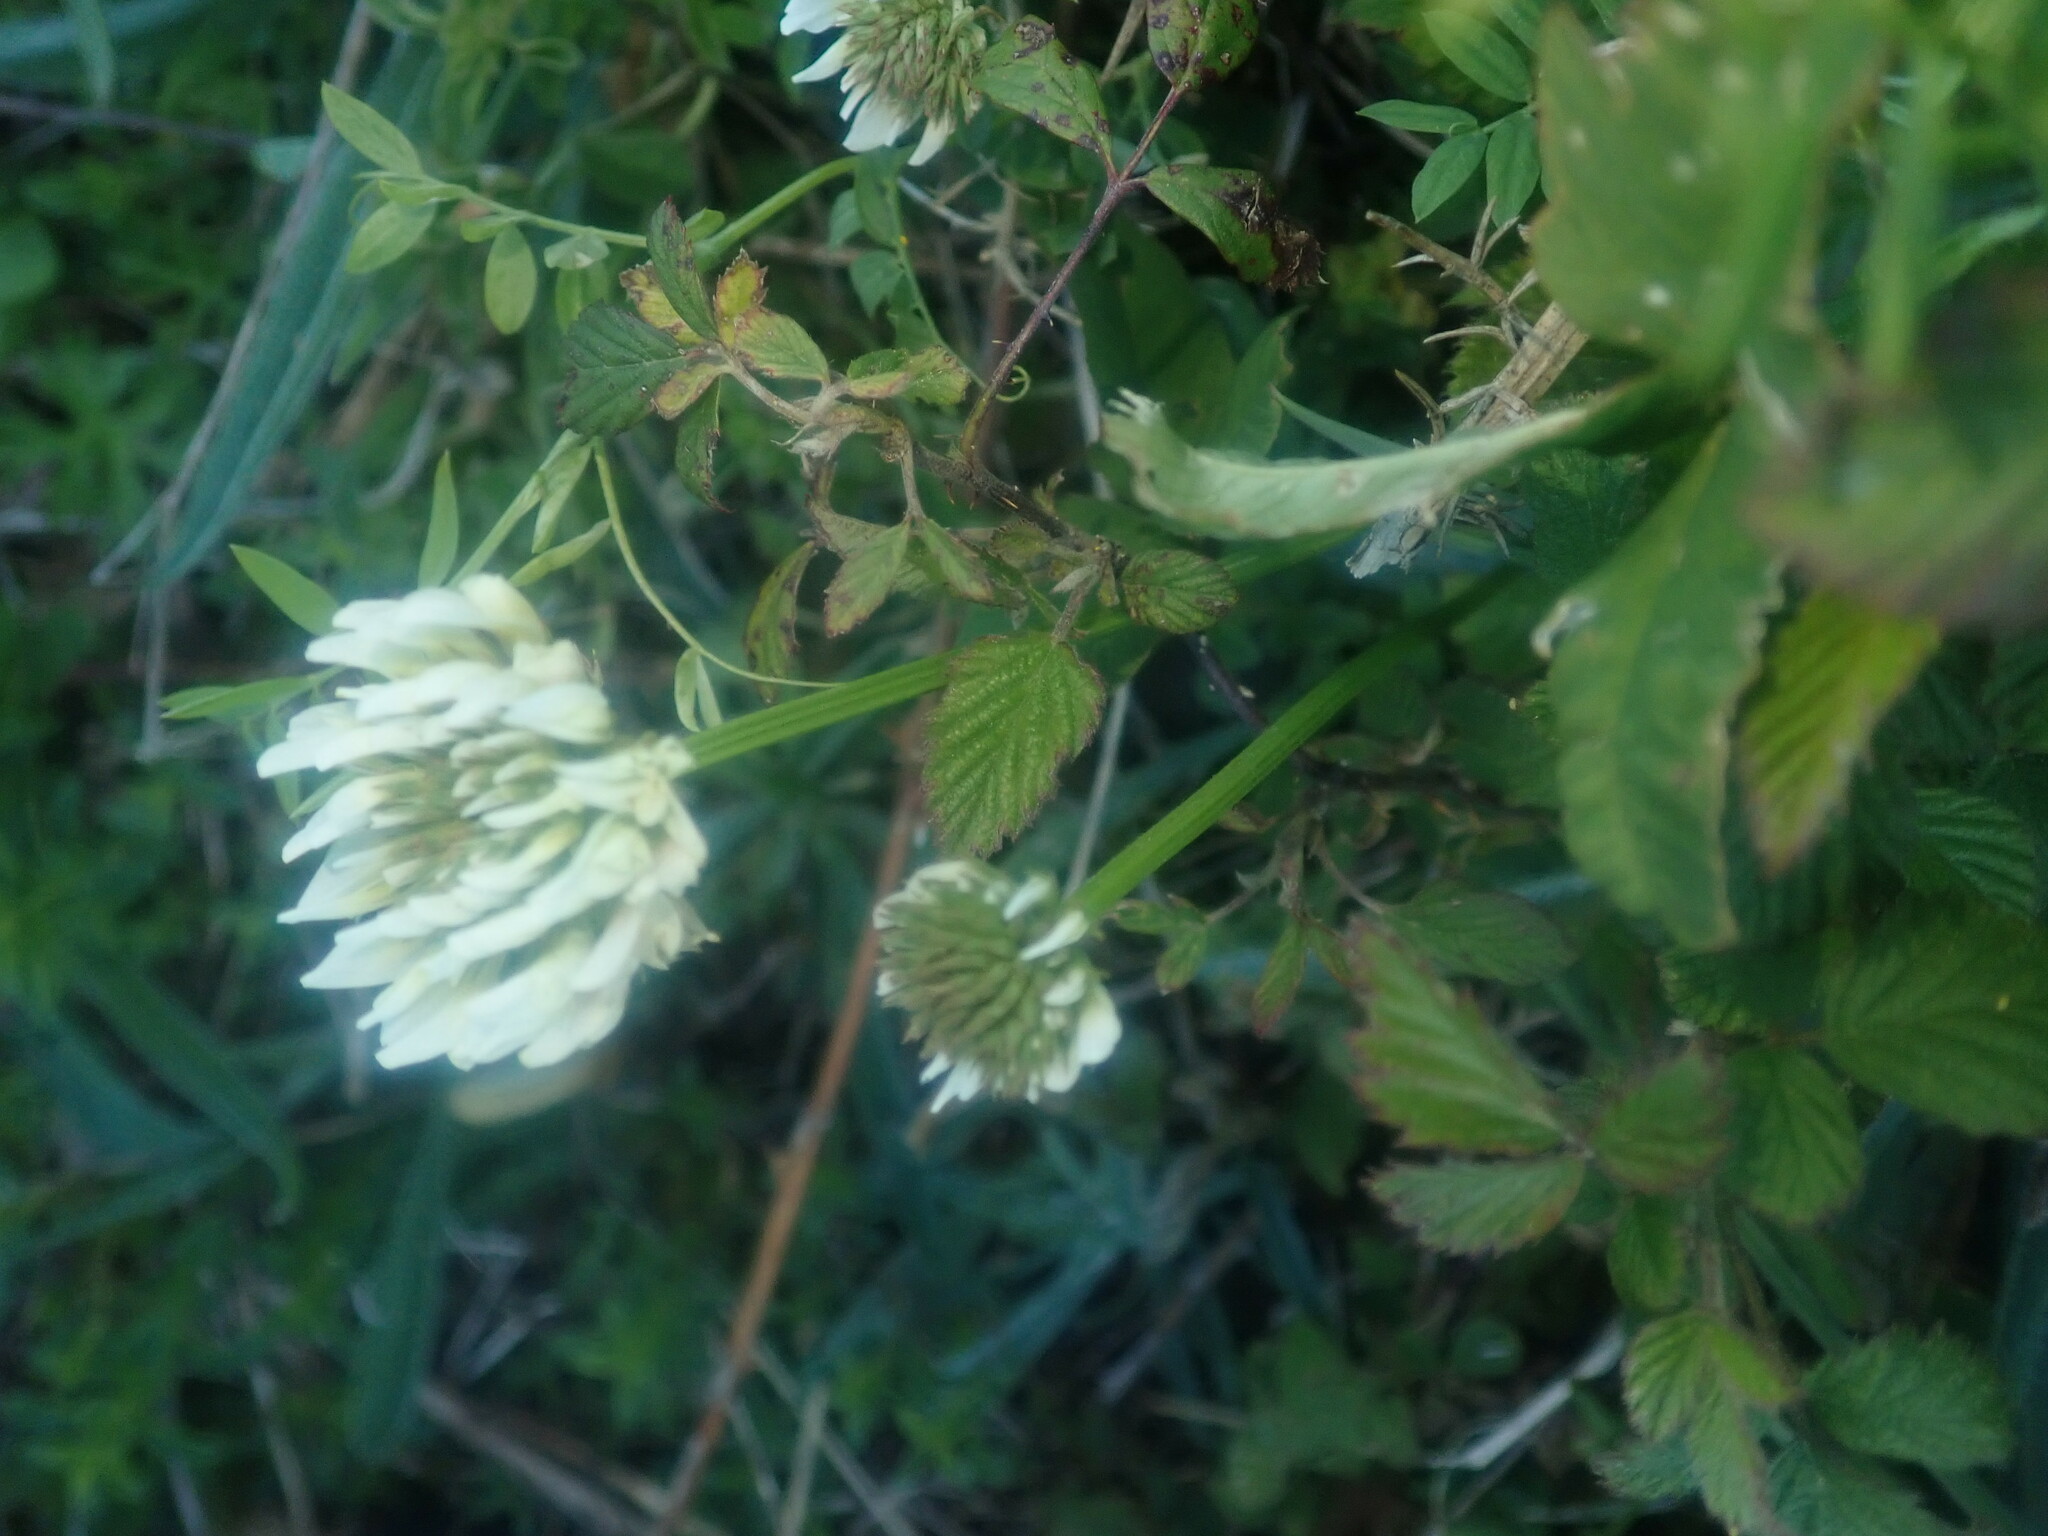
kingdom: Plantae
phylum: Tracheophyta
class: Magnoliopsida
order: Fabales
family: Fabaceae
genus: Trifolium
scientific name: Trifolium repens
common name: White clover
